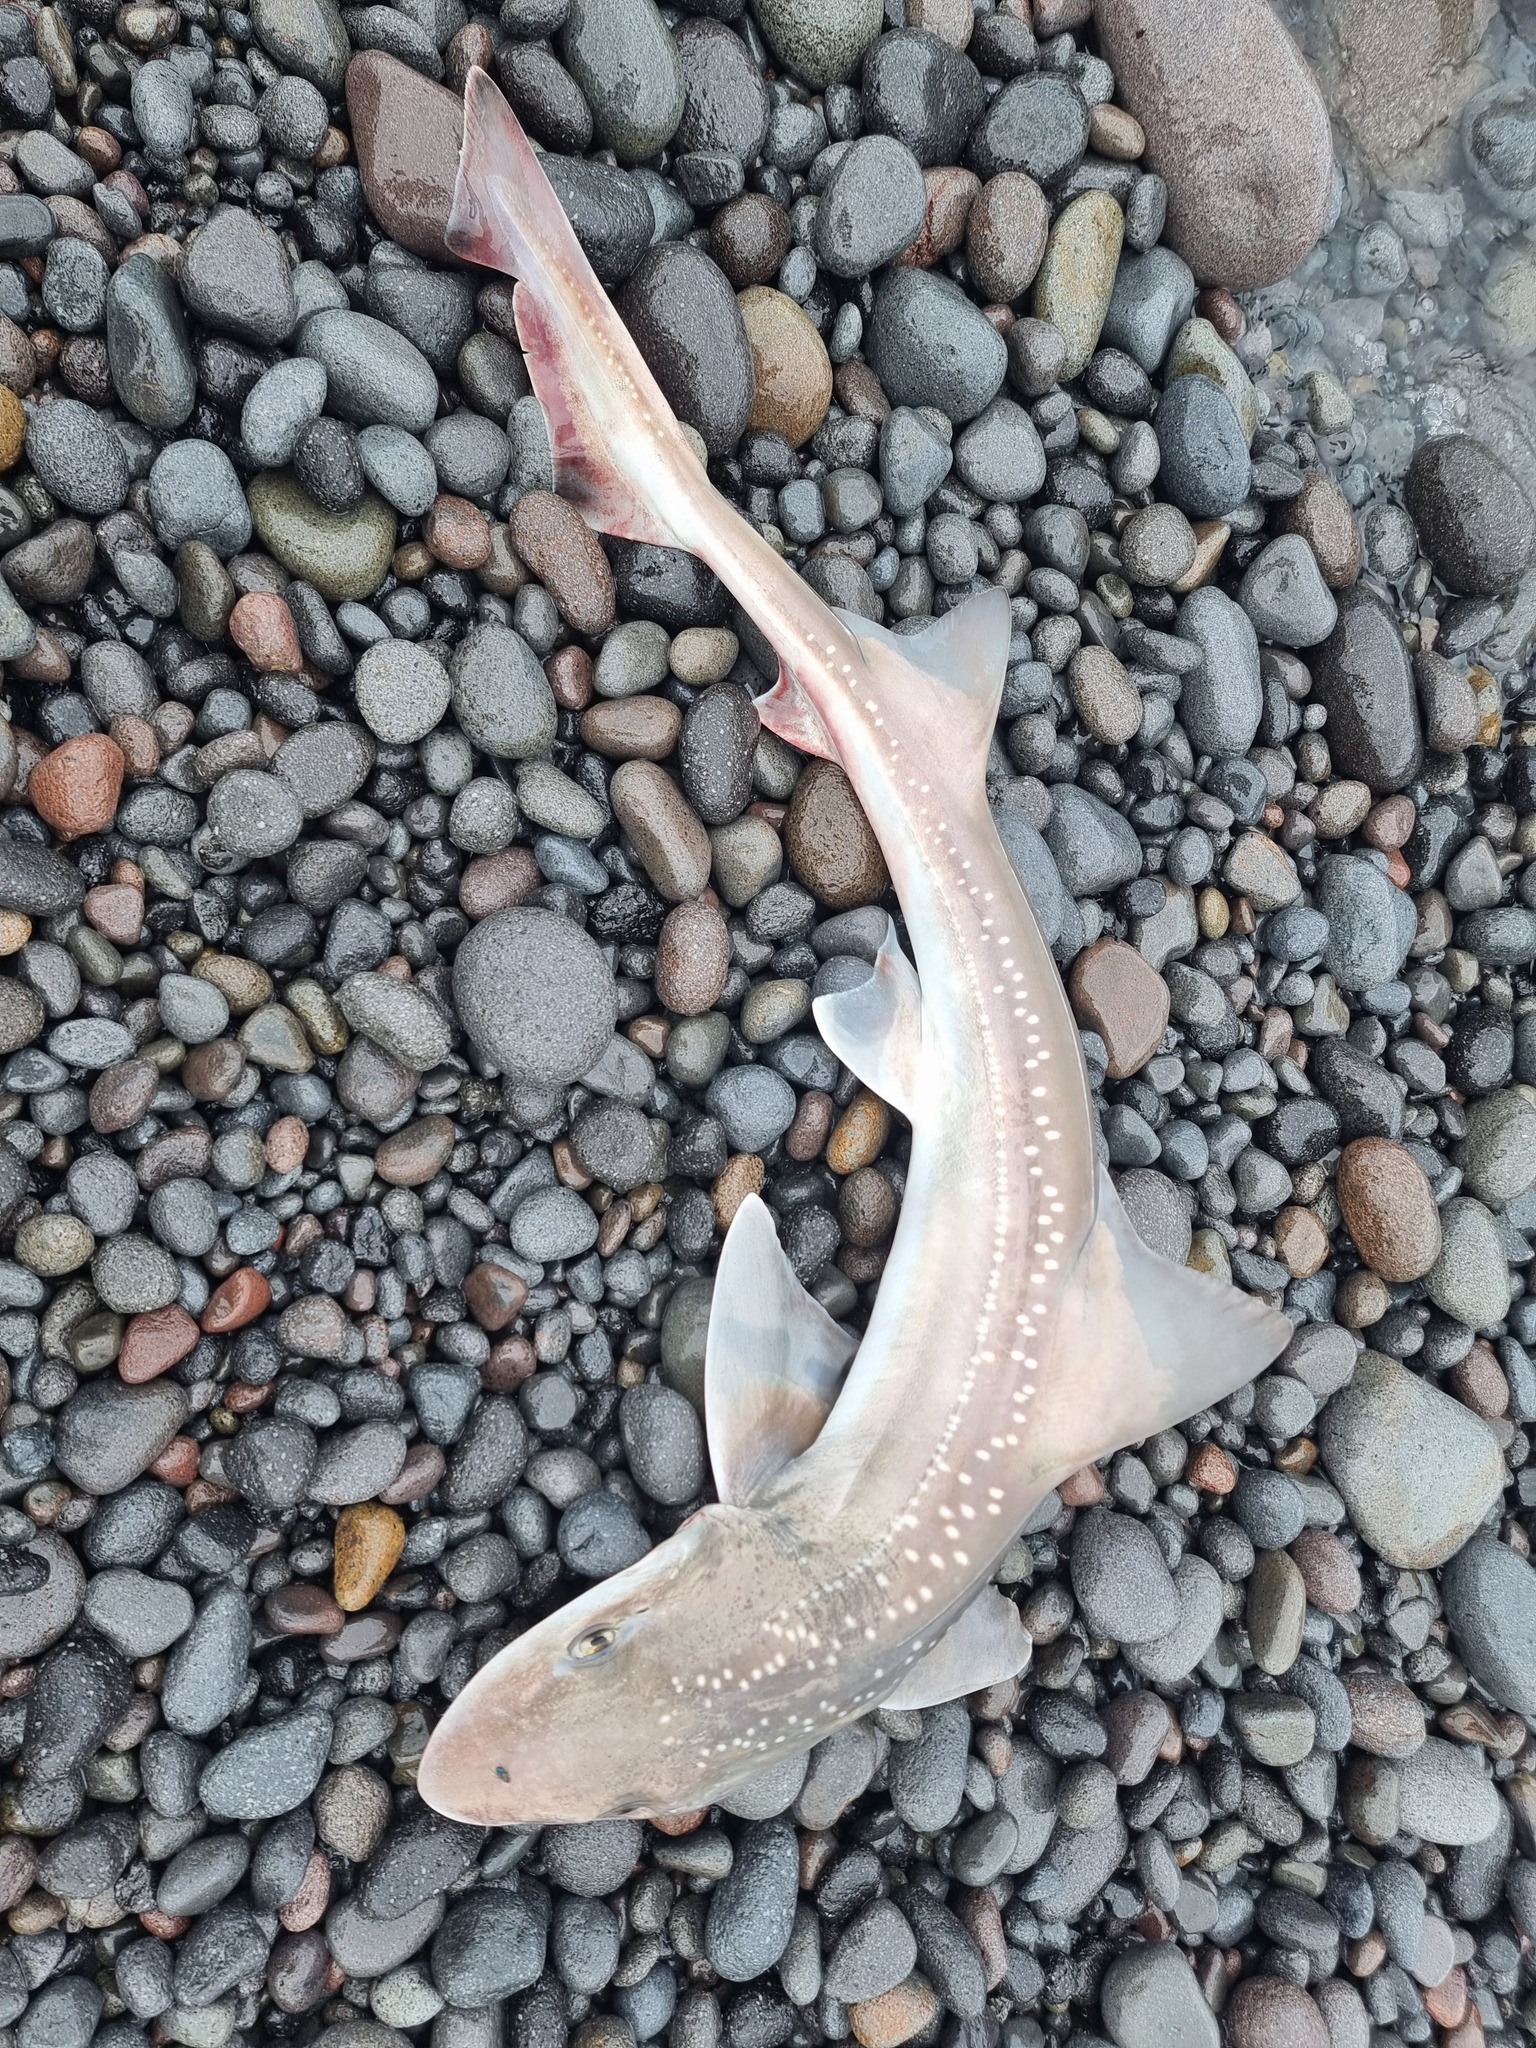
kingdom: Animalia
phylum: Chordata
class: Elasmobranchii
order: Carcharhiniformes
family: Triakidae
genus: Mustelus
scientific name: Mustelus lenticulatus
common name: Gummy shark
